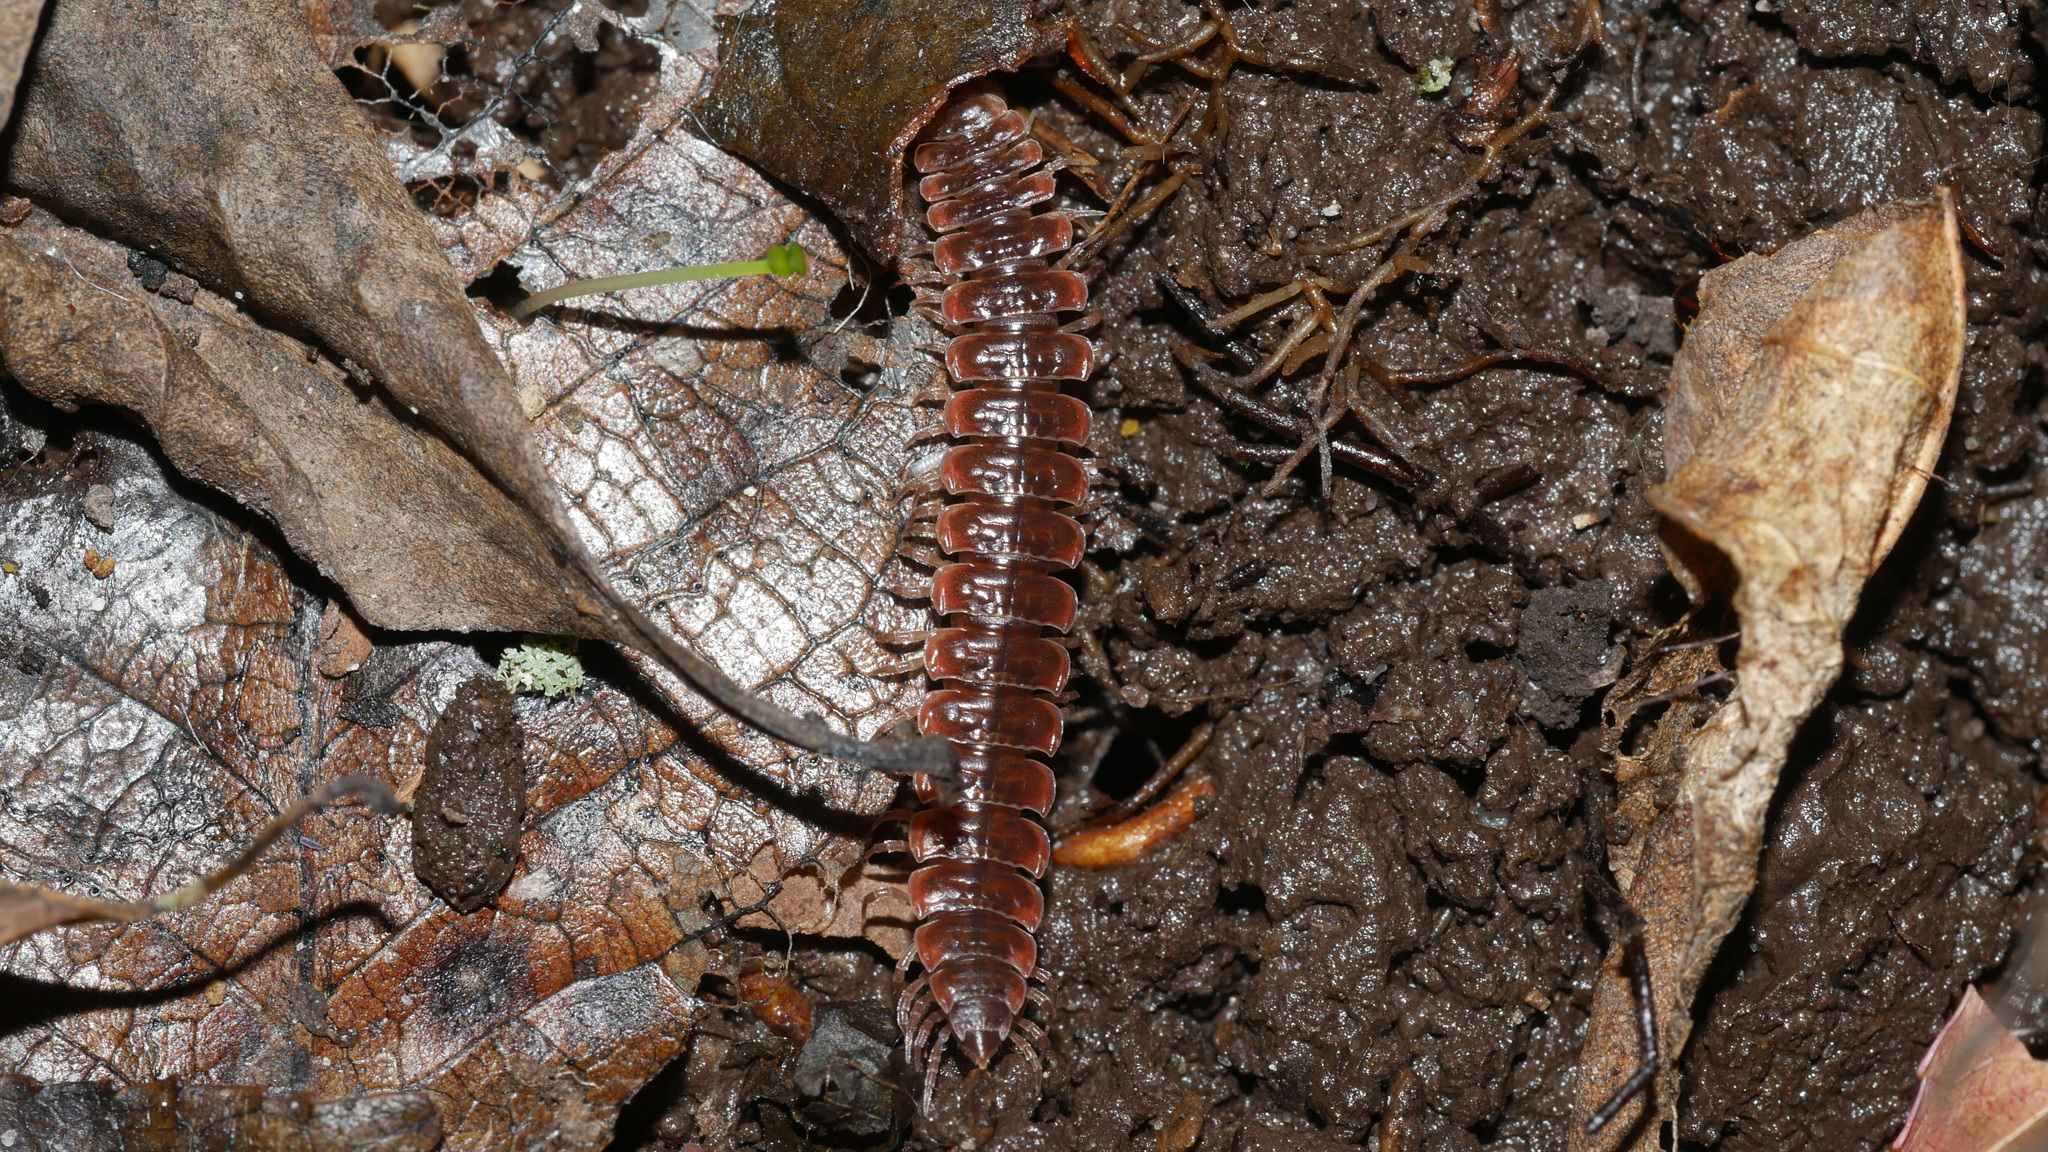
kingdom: Animalia
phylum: Arthropoda
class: Diplopoda
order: Polydesmida
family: Polydesmidae
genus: Pseudopolydesmus
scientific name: Pseudopolydesmus serratus
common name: Common pink flat-back millipede
